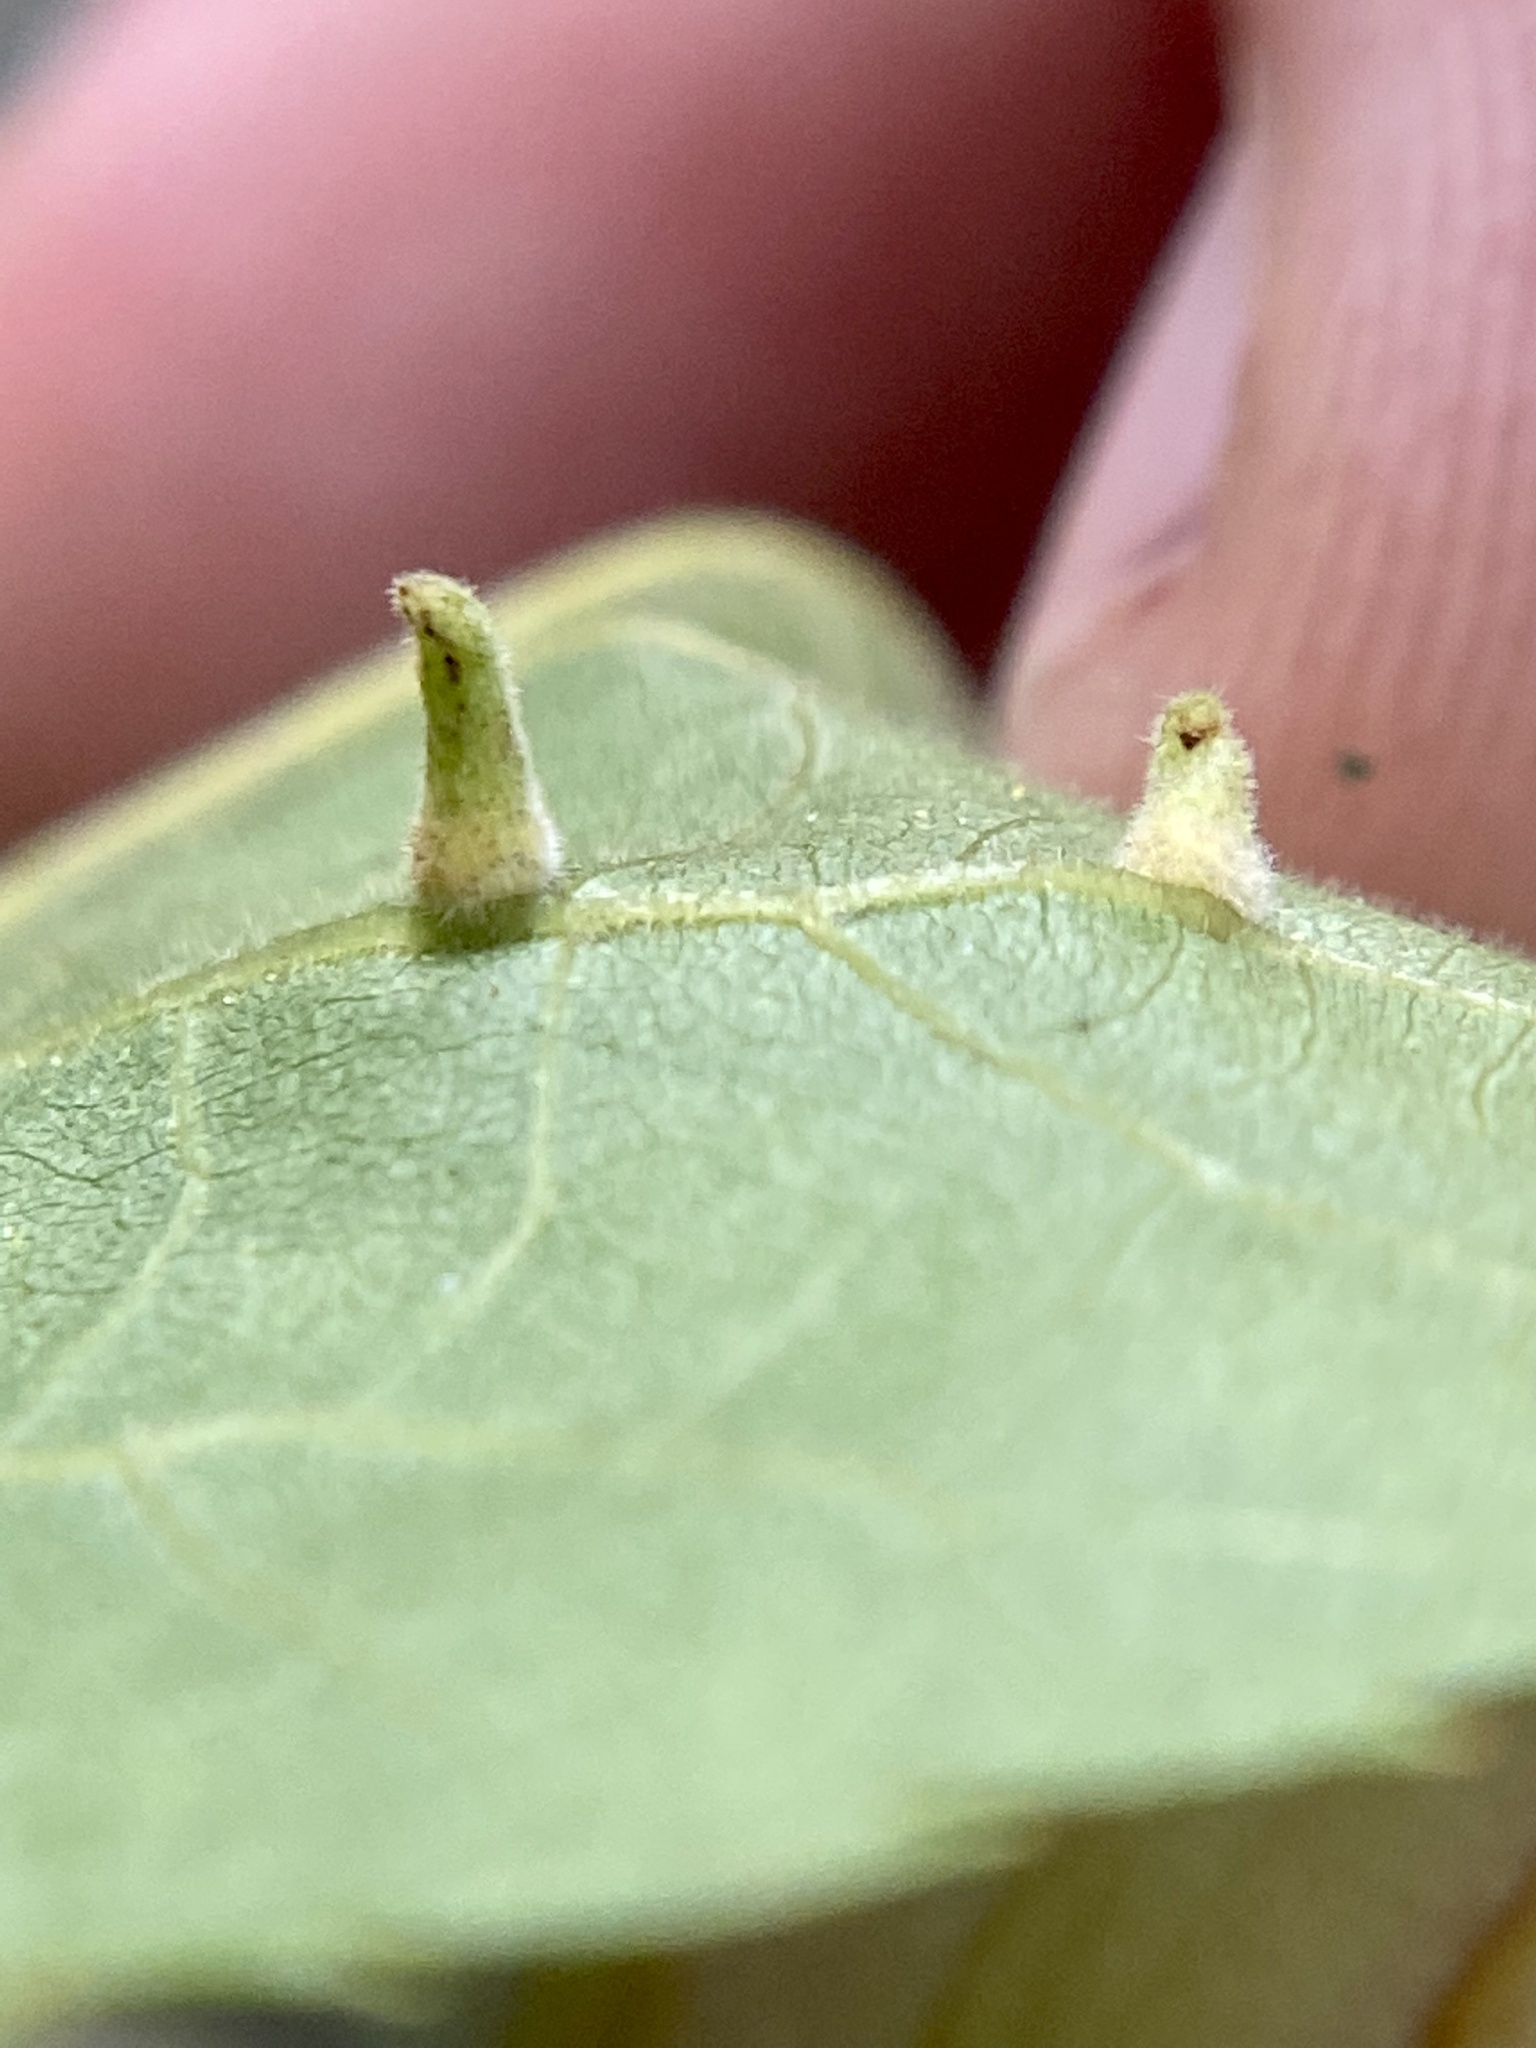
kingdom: Animalia
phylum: Arthropoda
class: Insecta
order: Diptera
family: Cecidomyiidae
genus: Caryomyia
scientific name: Caryomyia spinulosa
